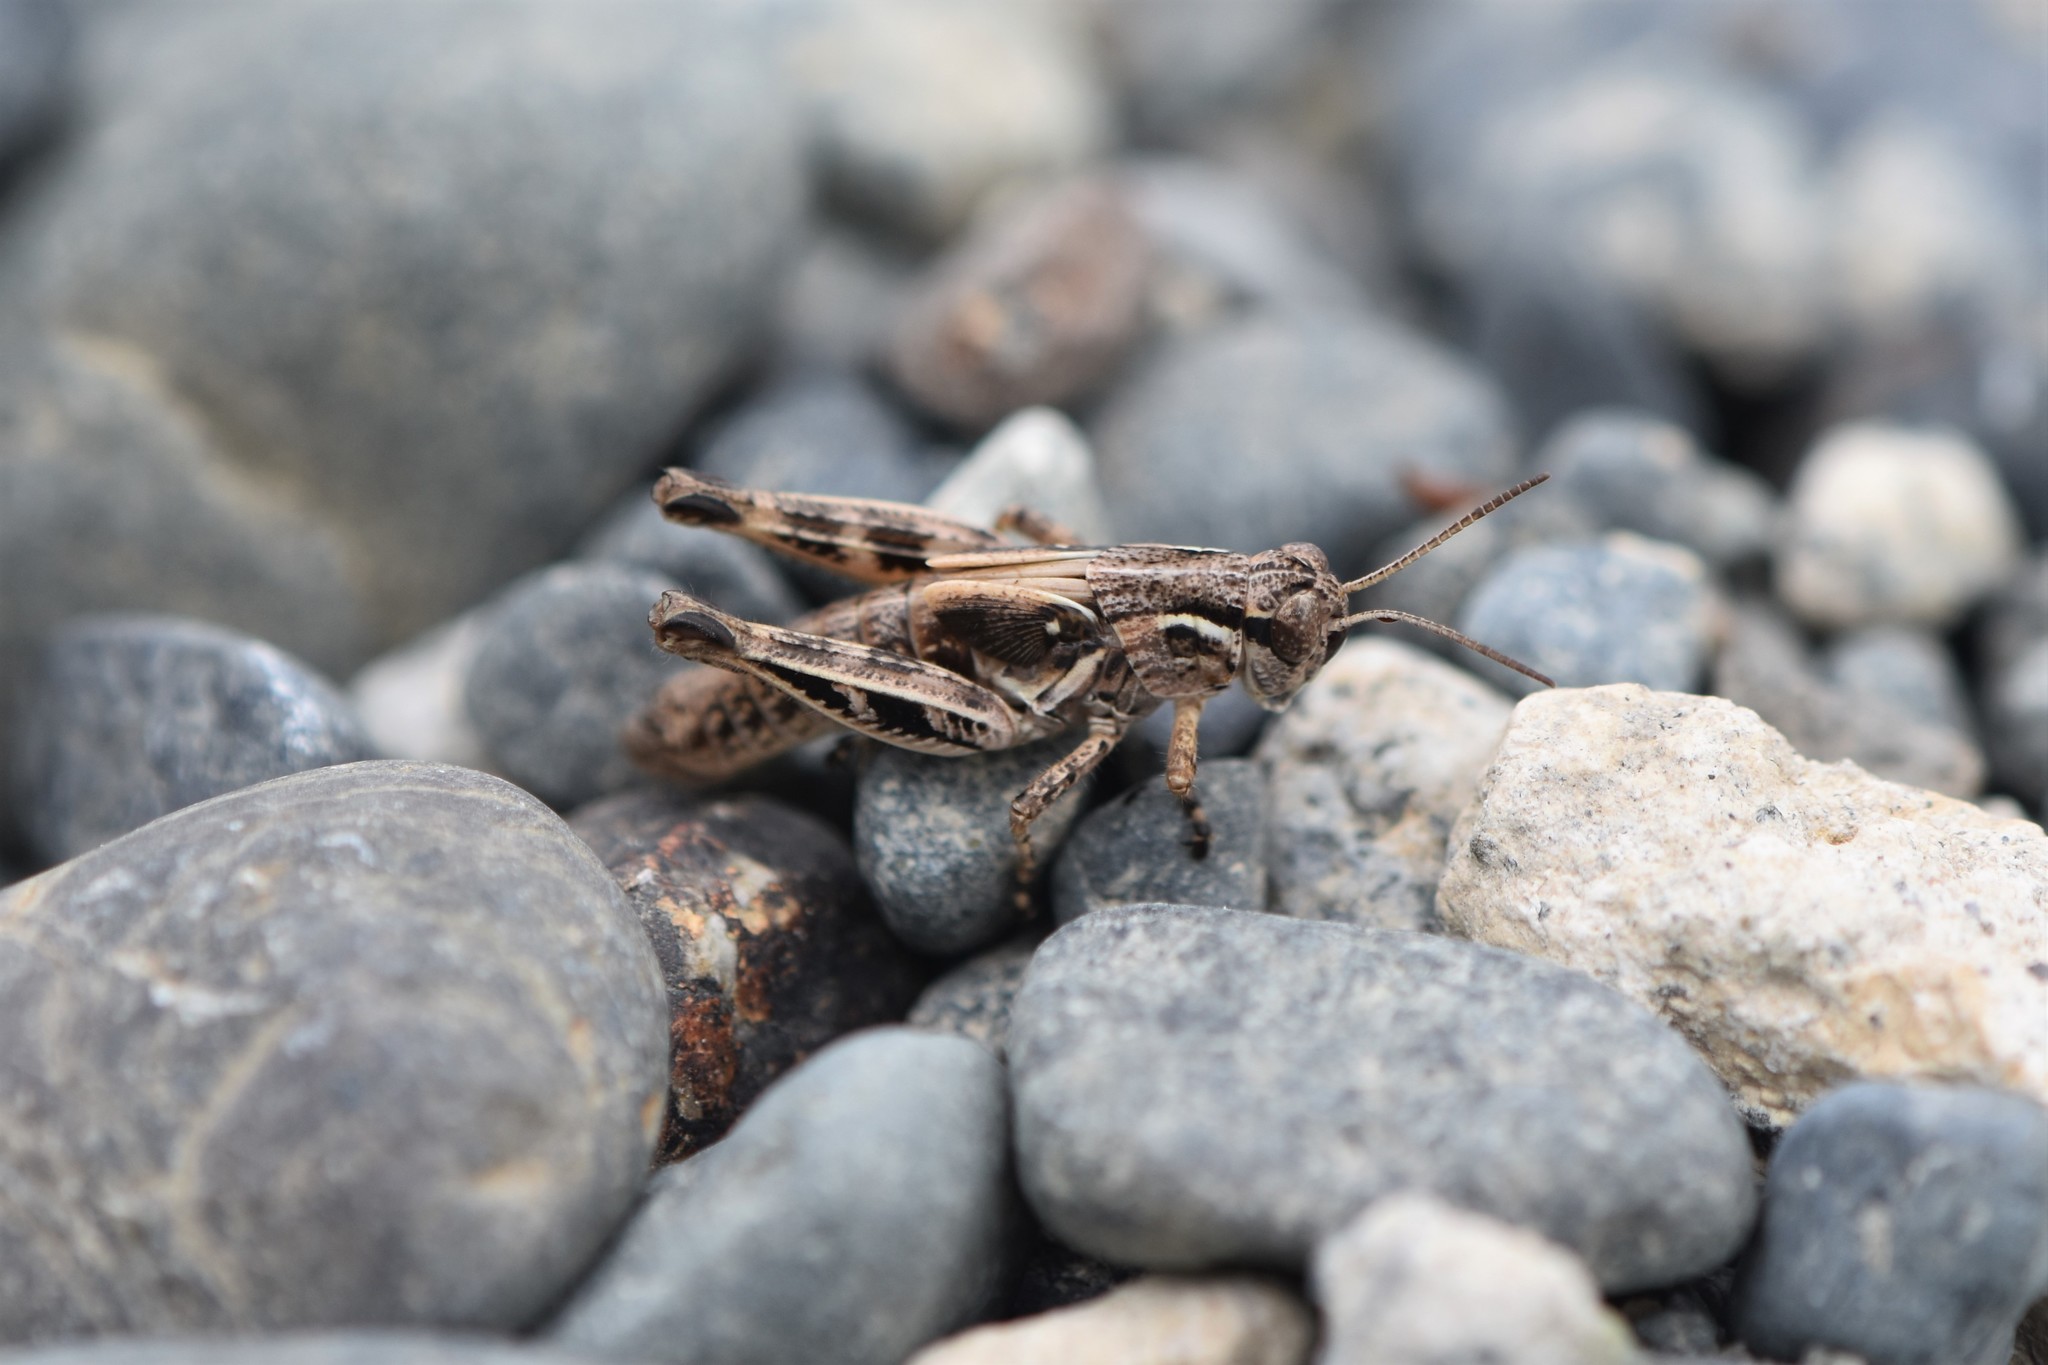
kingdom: Animalia
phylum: Arthropoda
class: Insecta
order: Orthoptera
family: Acrididae
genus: Melanoplus
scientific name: Melanoplus sanguinipes
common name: Migratory grasshopper
